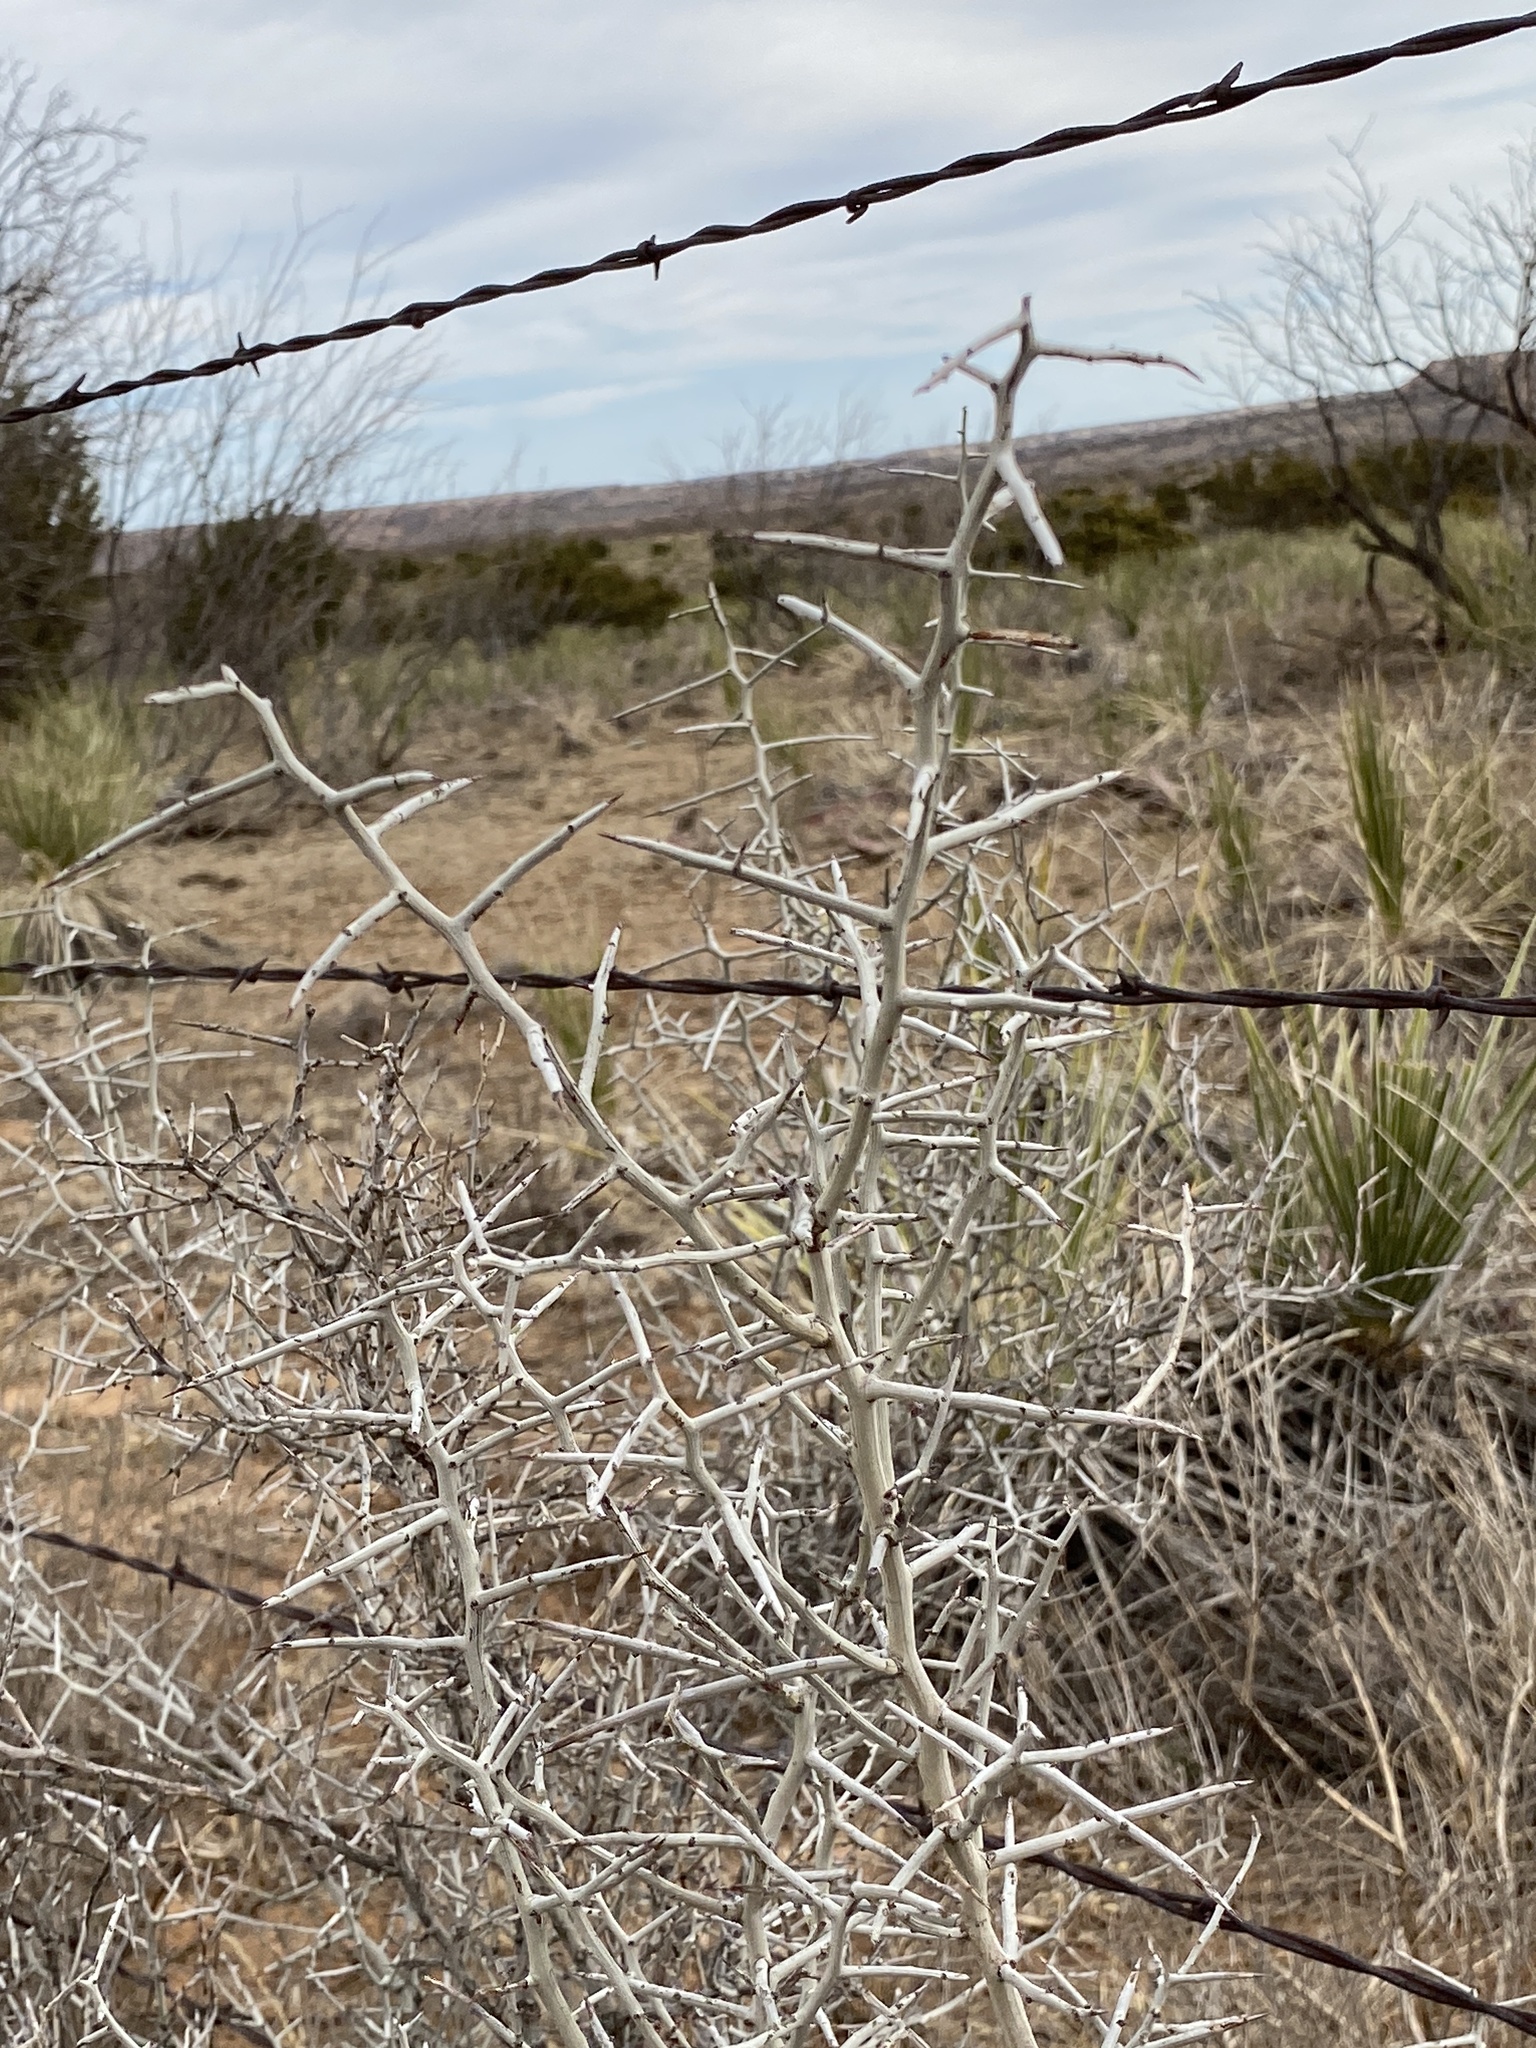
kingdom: Plantae
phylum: Tracheophyta
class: Magnoliopsida
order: Rosales
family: Rhamnaceae
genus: Sarcomphalus
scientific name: Sarcomphalus obtusifolius
